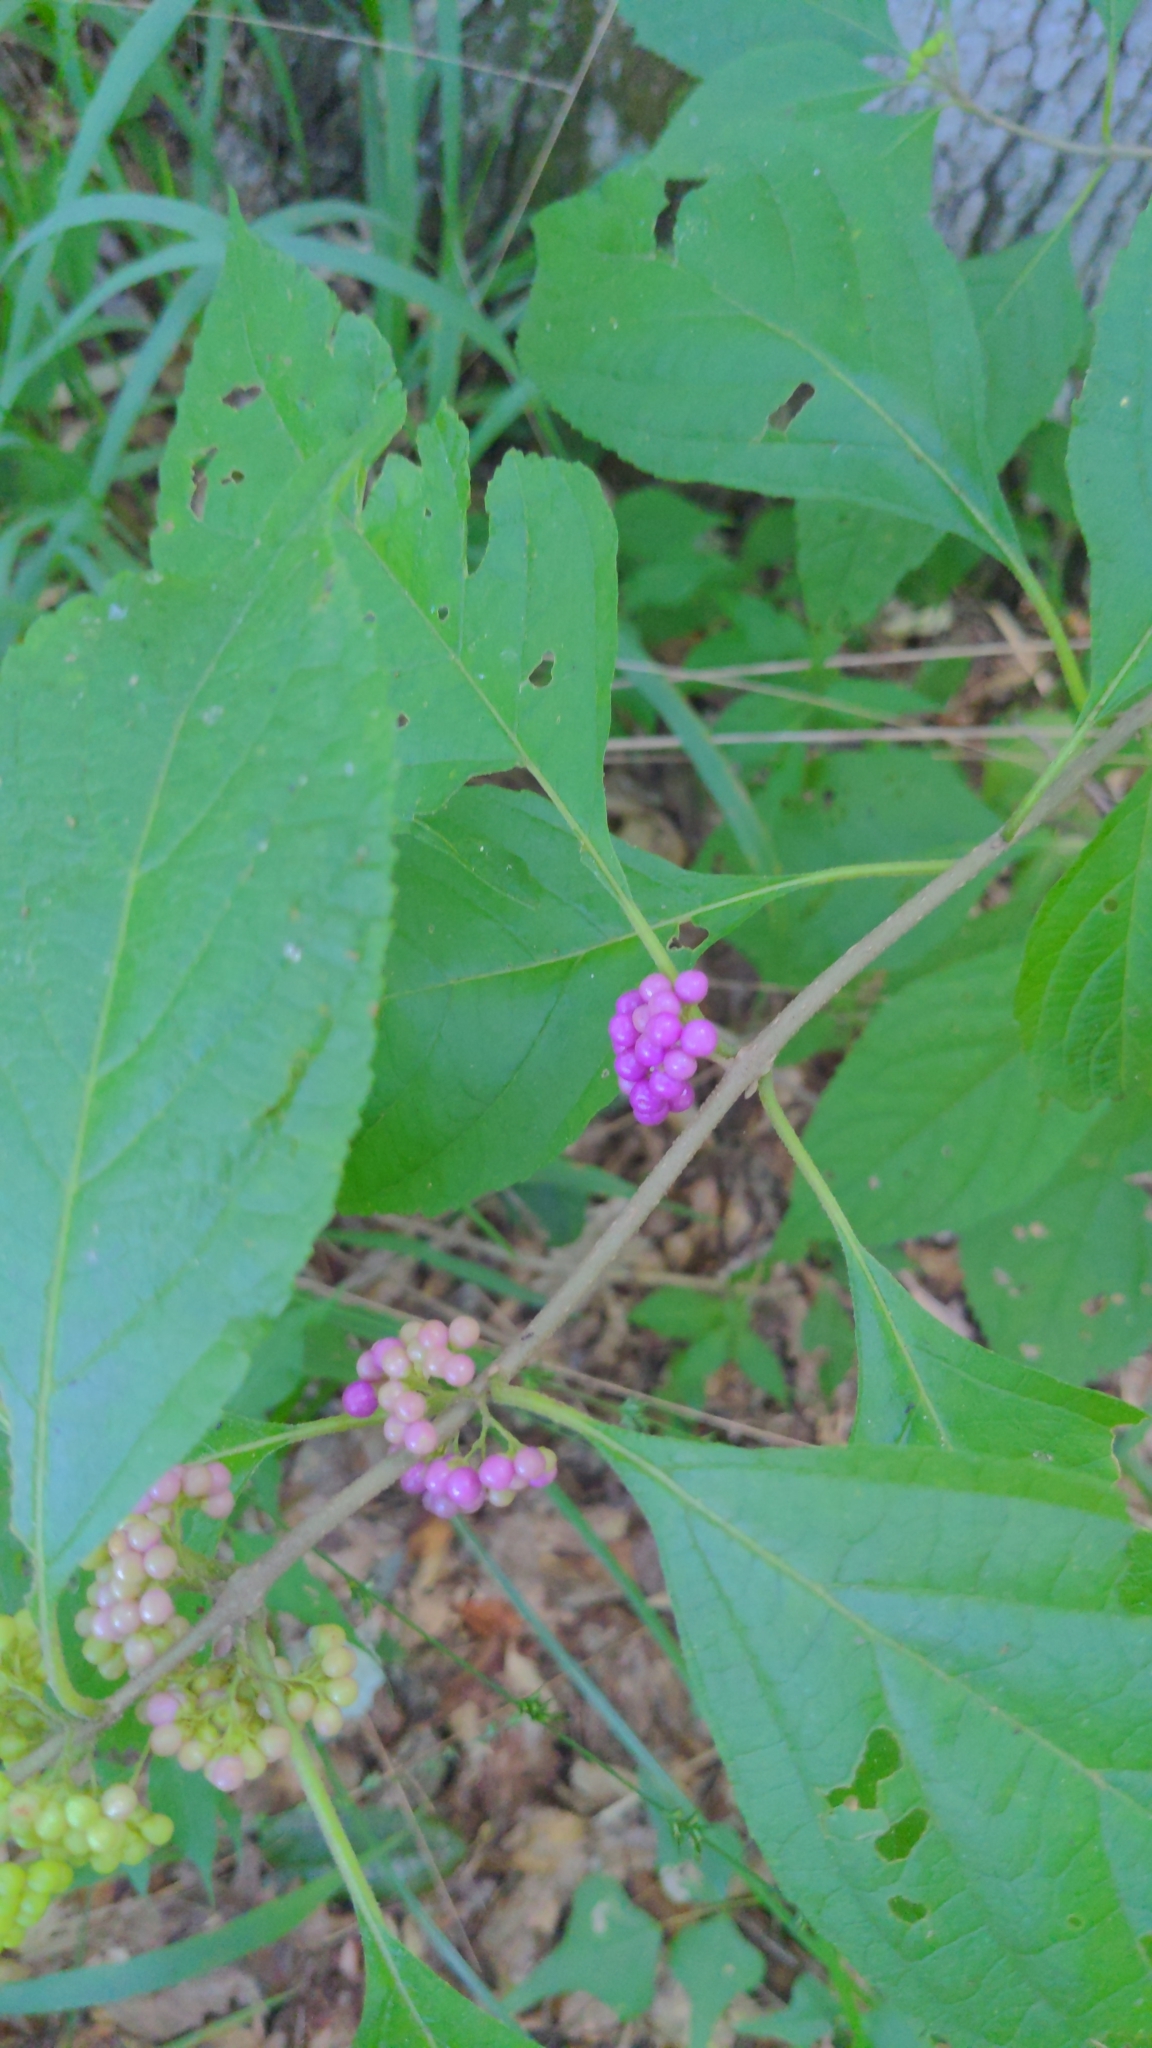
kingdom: Plantae
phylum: Tracheophyta
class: Magnoliopsida
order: Lamiales
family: Lamiaceae
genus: Callicarpa
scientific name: Callicarpa americana
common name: American beautyberry
